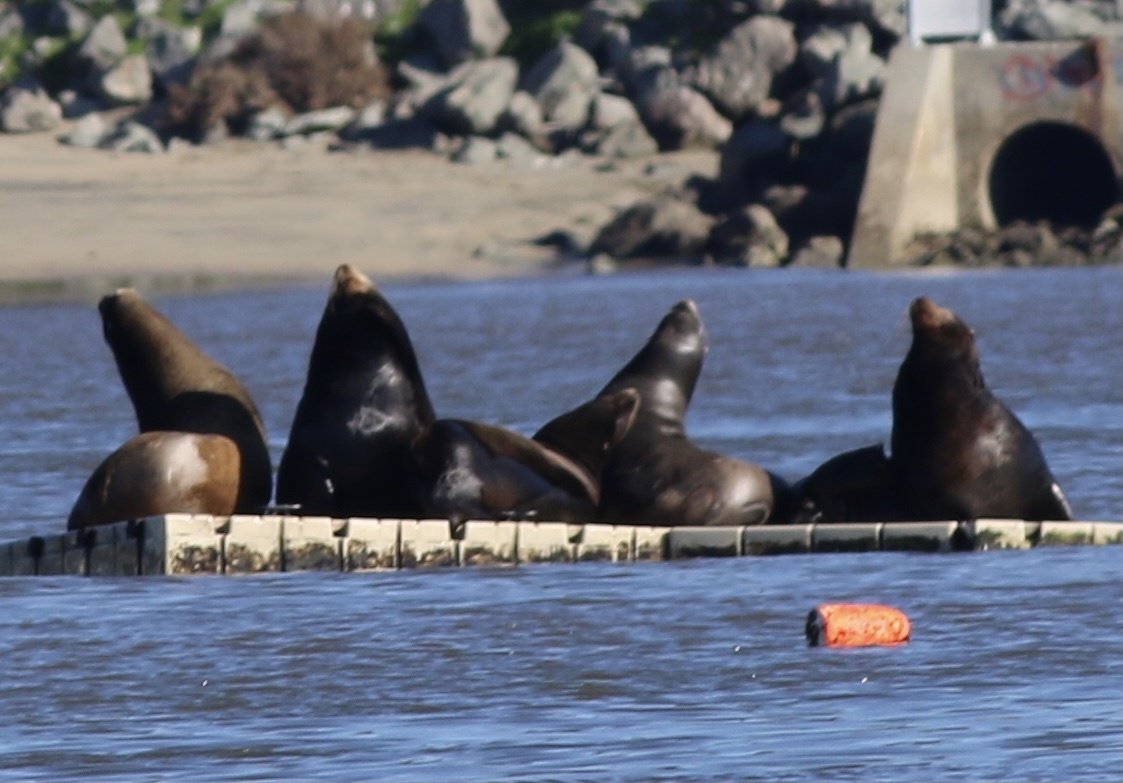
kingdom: Animalia
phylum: Chordata
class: Mammalia
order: Carnivora
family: Otariidae
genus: Zalophus
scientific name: Zalophus californianus
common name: California sea lion
